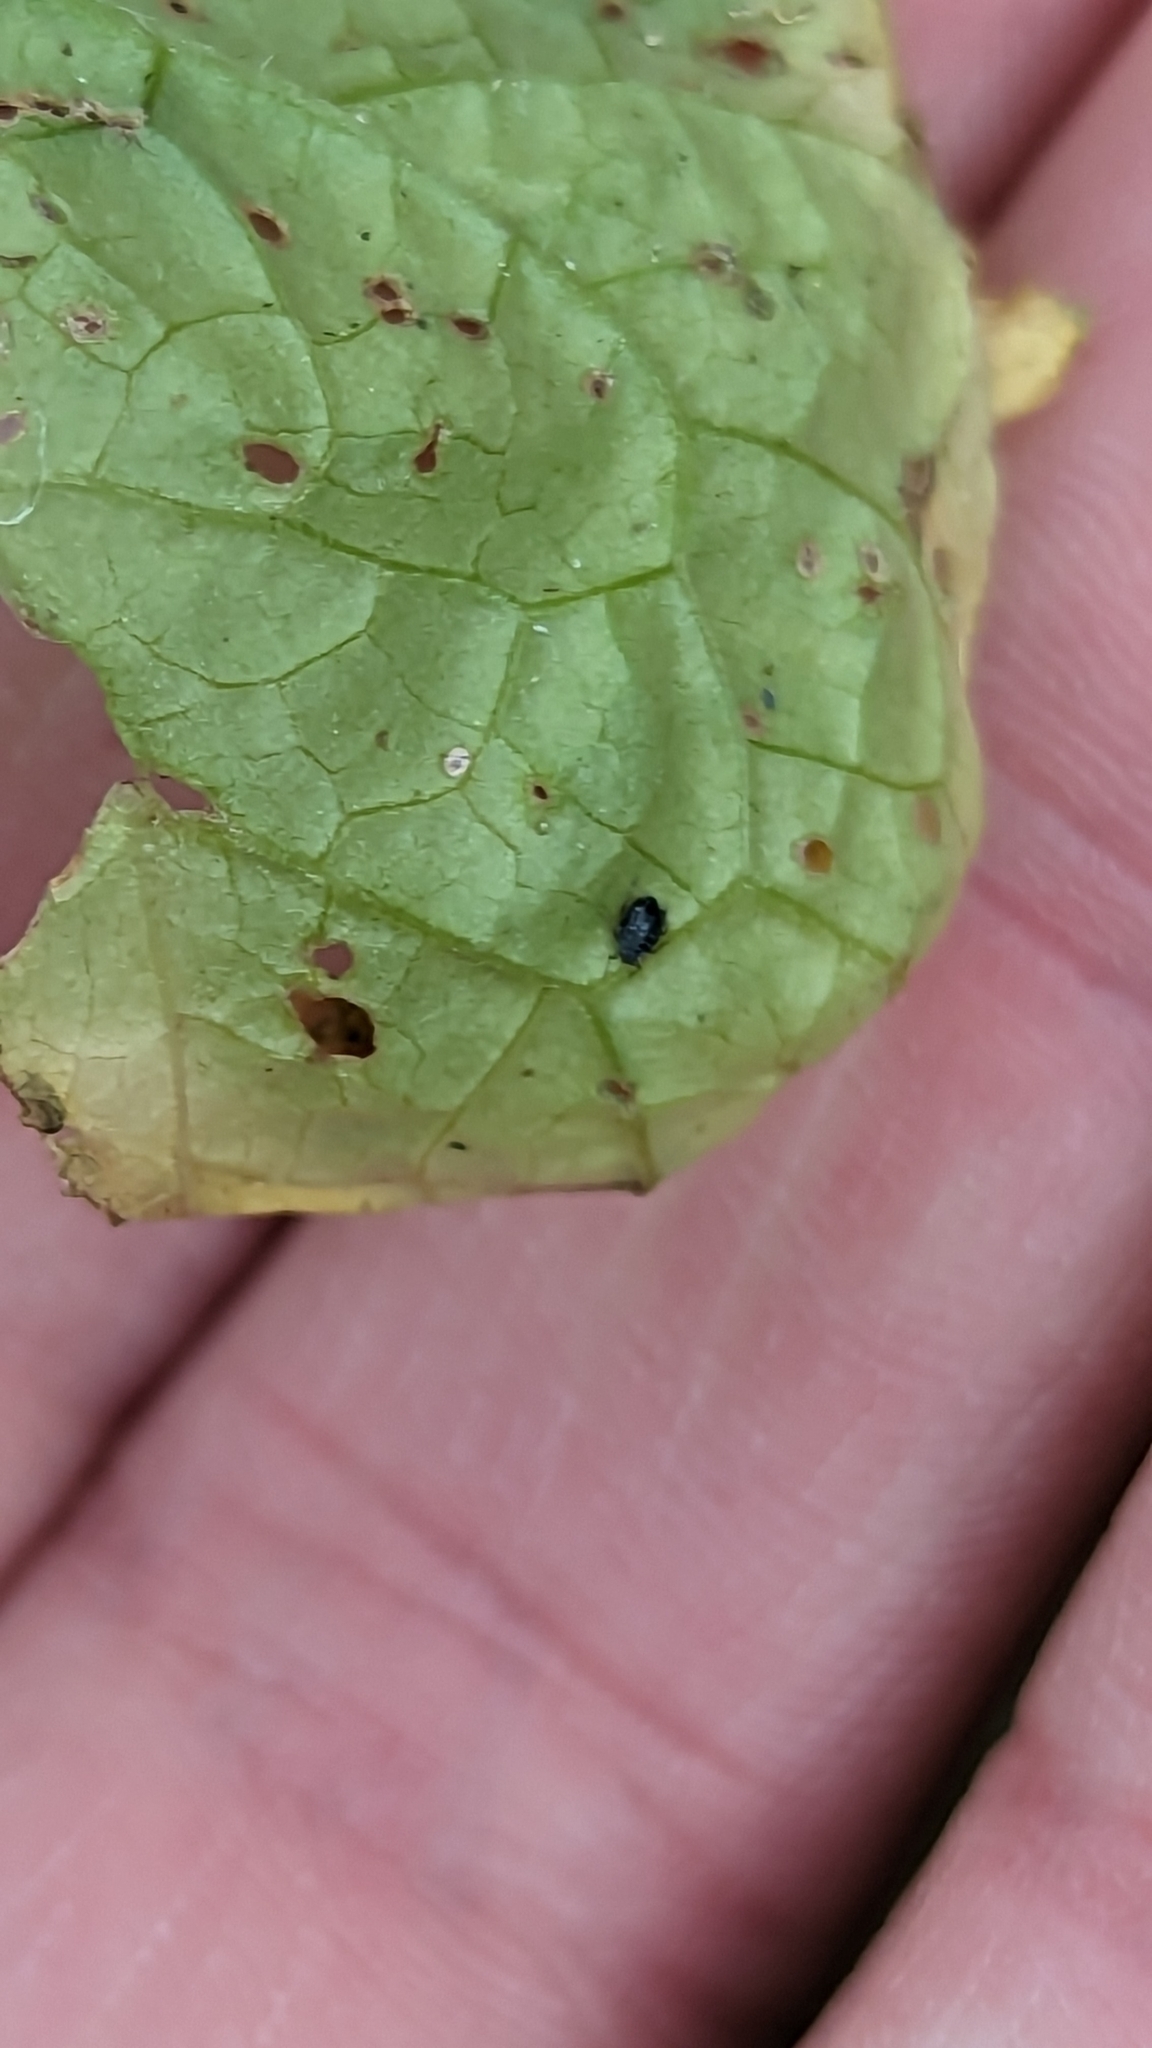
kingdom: Animalia
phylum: Arthropoda
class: Insecta
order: Hemiptera
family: Aphididae
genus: Lipaphis
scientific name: Lipaphis alliariae
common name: Granade aphid
